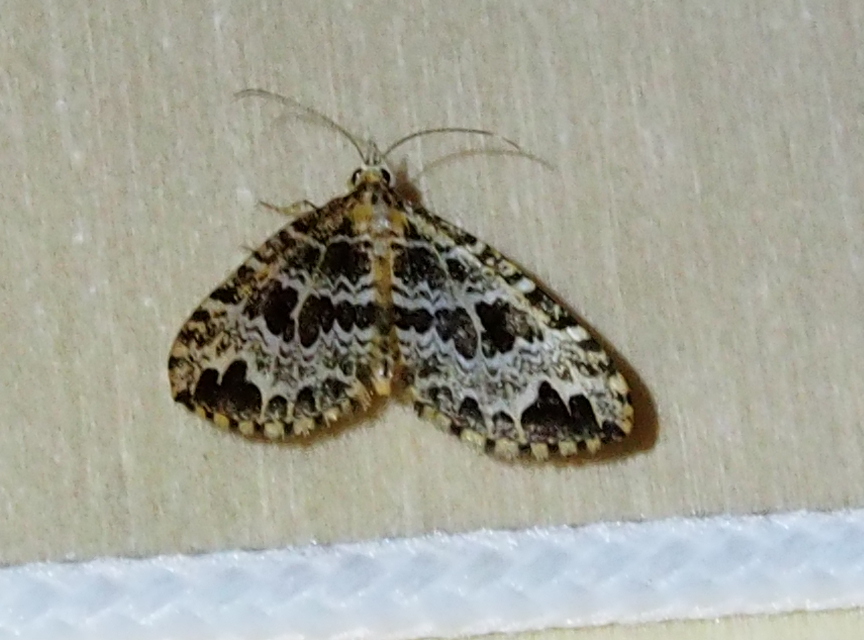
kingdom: Animalia
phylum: Arthropoda
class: Insecta
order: Lepidoptera
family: Geometridae
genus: Psaliodes
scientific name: Psaliodes aurativena
